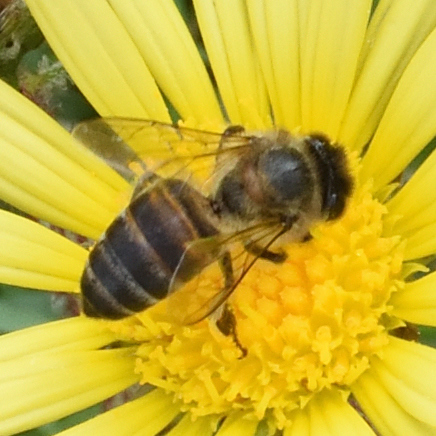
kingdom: Animalia
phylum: Arthropoda
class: Insecta
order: Hymenoptera
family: Apidae
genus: Apis
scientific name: Apis mellifera
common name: Honey bee
